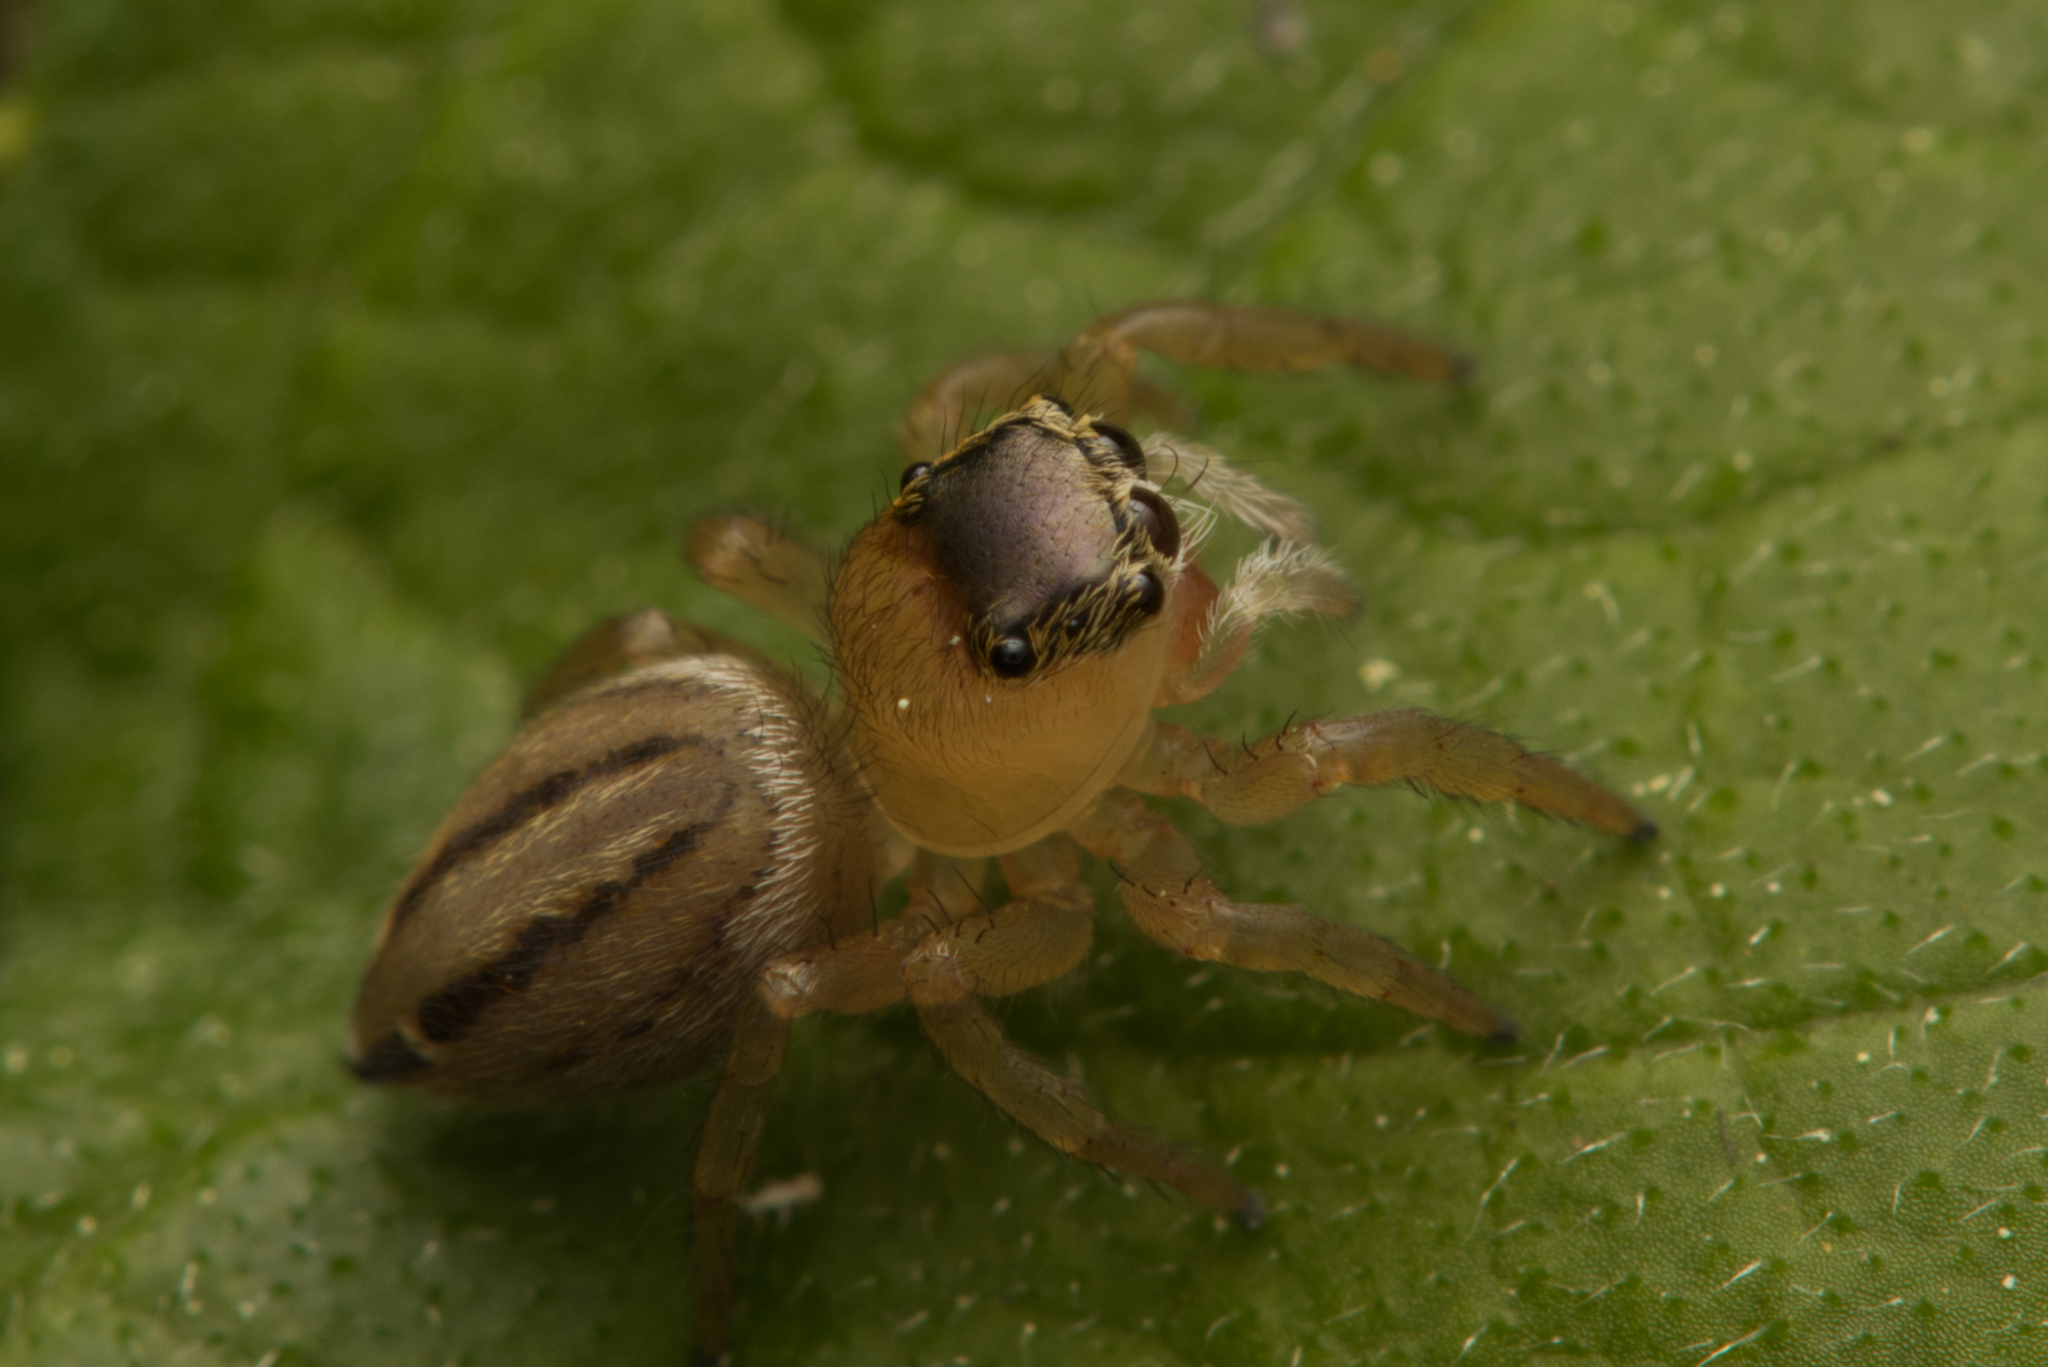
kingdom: Animalia
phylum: Arthropoda
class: Arachnida
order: Araneae
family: Salticidae
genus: Maratus
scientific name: Maratus scutulatus
